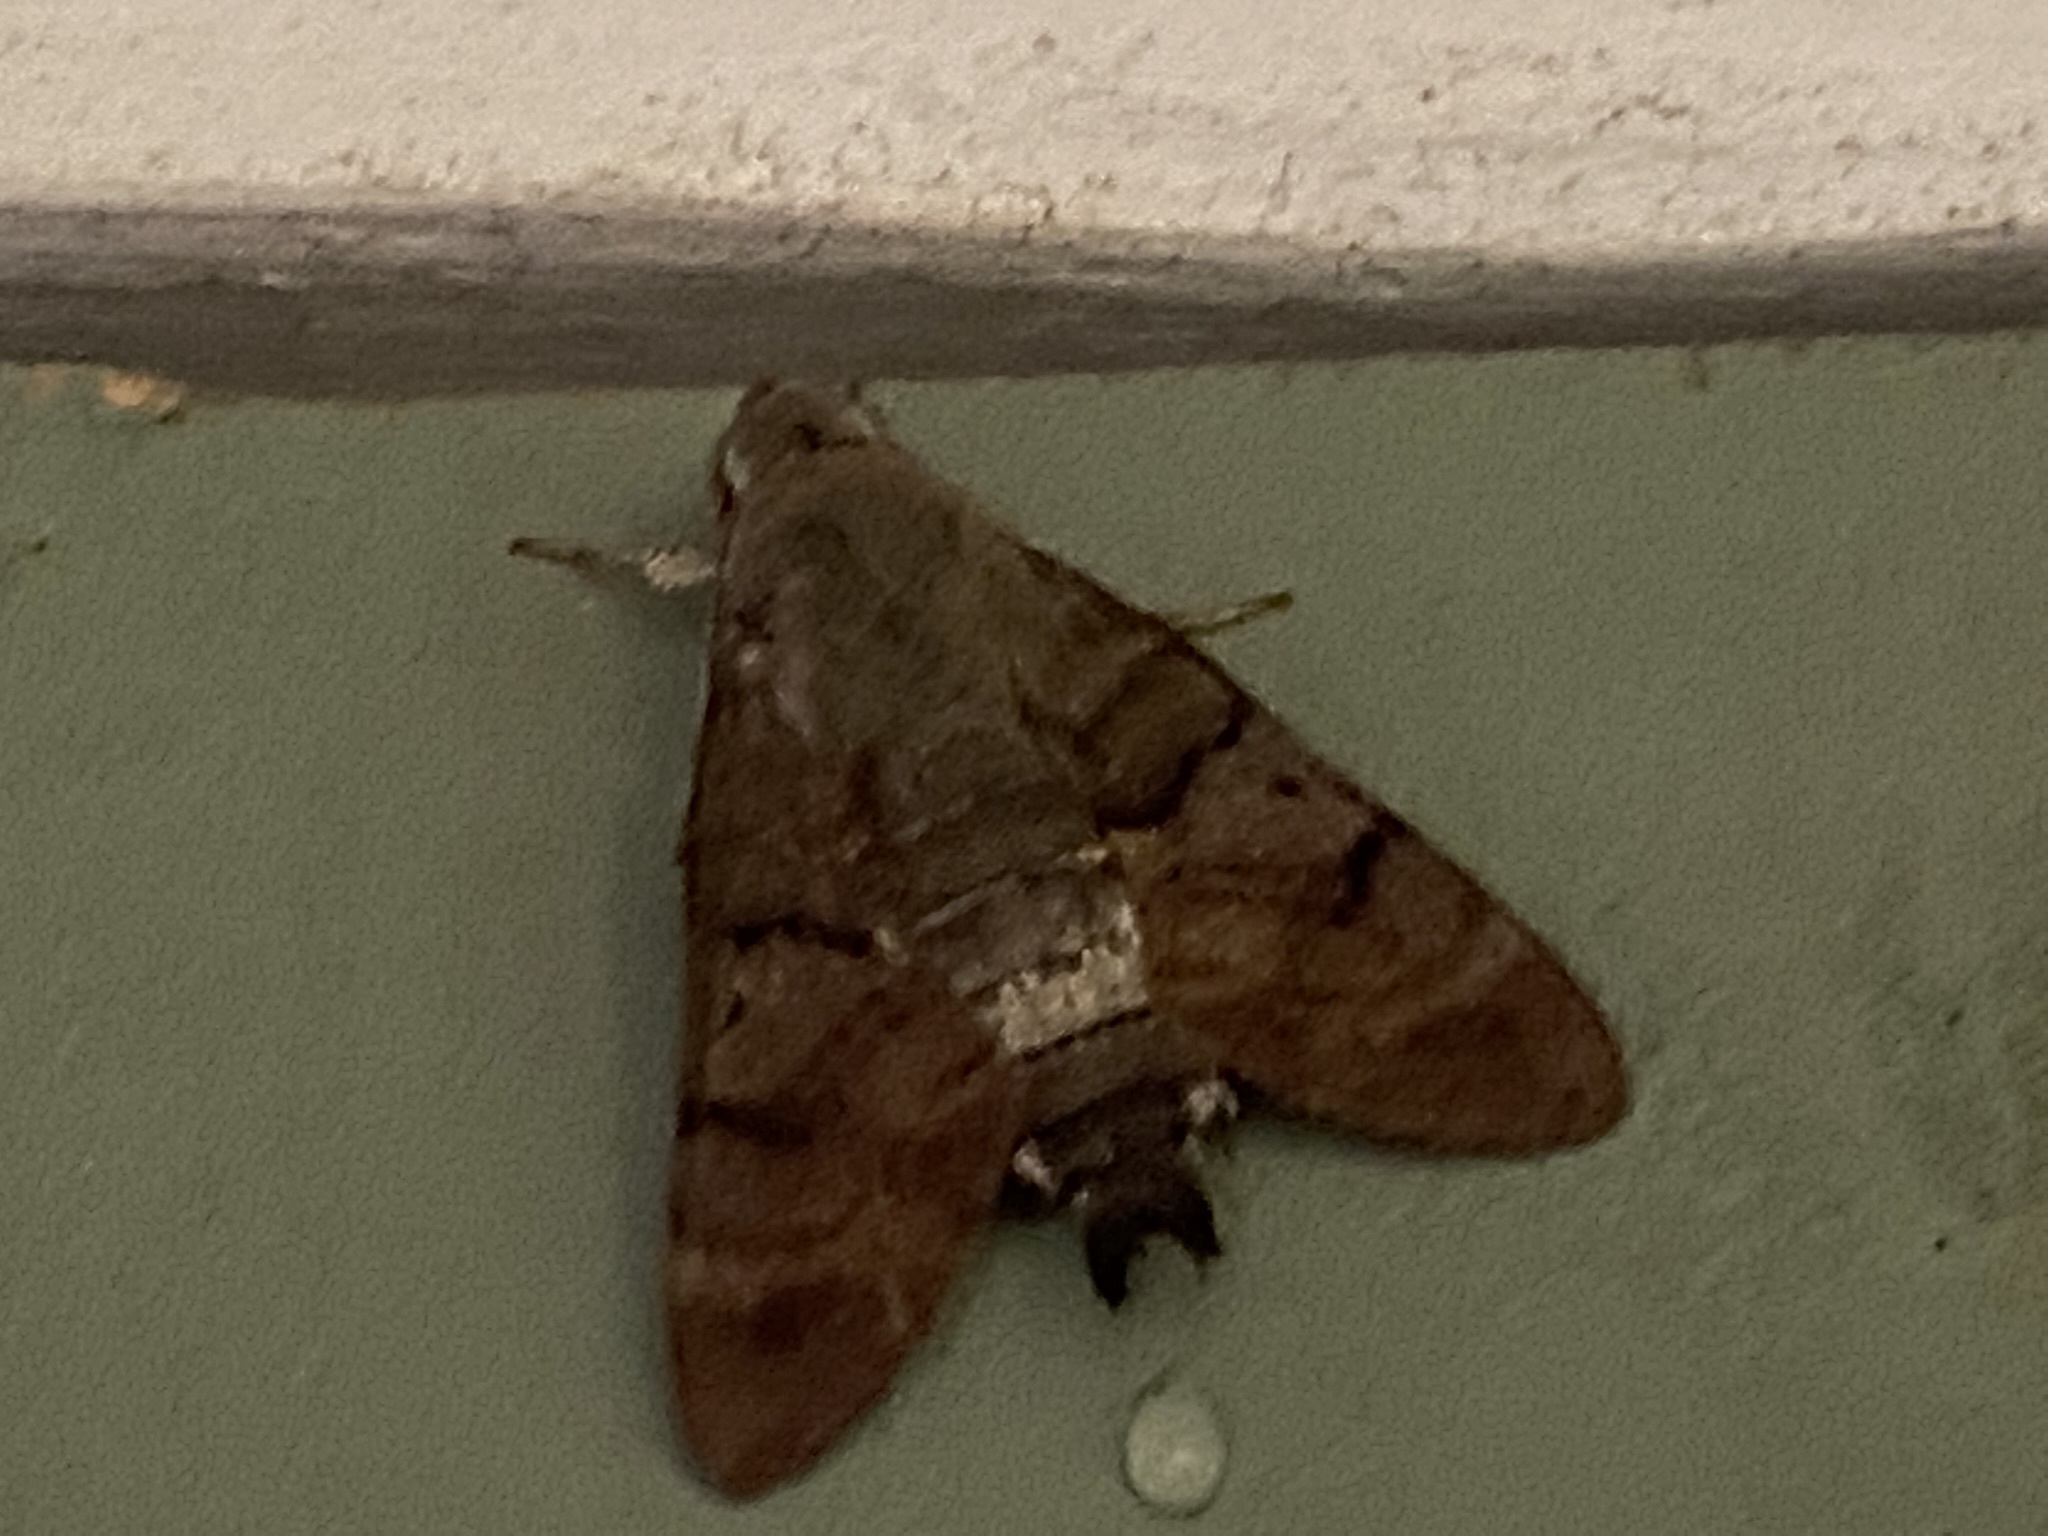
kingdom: Animalia
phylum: Arthropoda
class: Insecta
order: Lepidoptera
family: Sphingidae
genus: Macroglossum
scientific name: Macroglossum stellatarum
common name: Humming-bird hawk-moth
